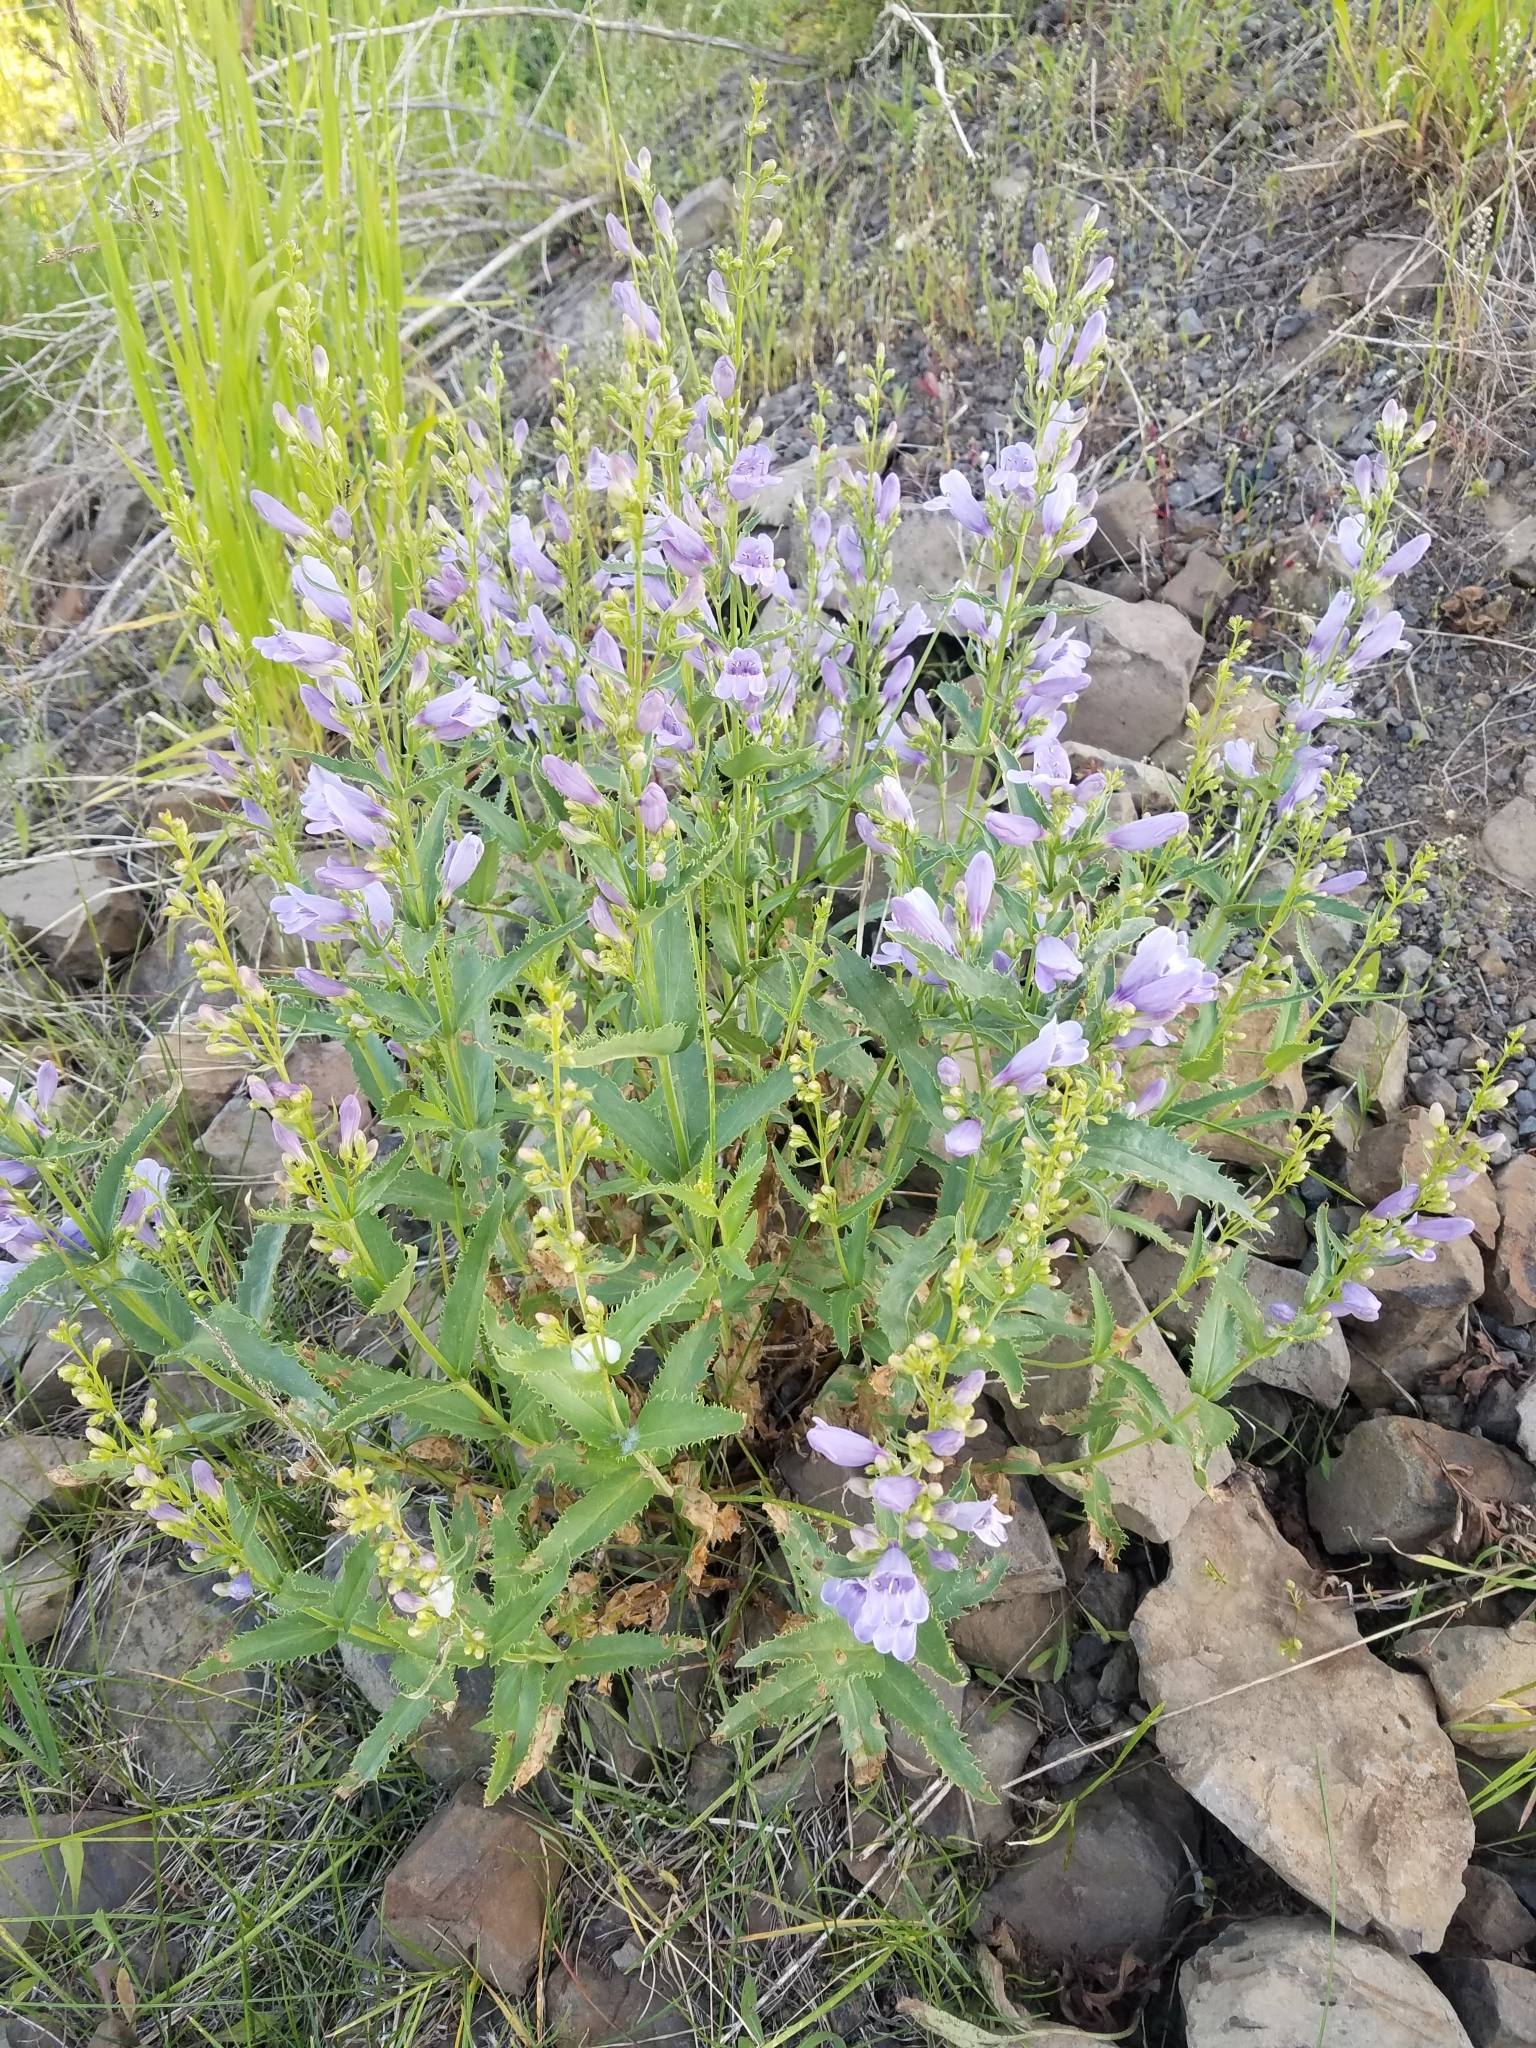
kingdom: Plantae
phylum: Tracheophyta
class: Magnoliopsida
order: Lamiales
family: Plantaginaceae
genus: Penstemon
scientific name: Penstemon venustus
